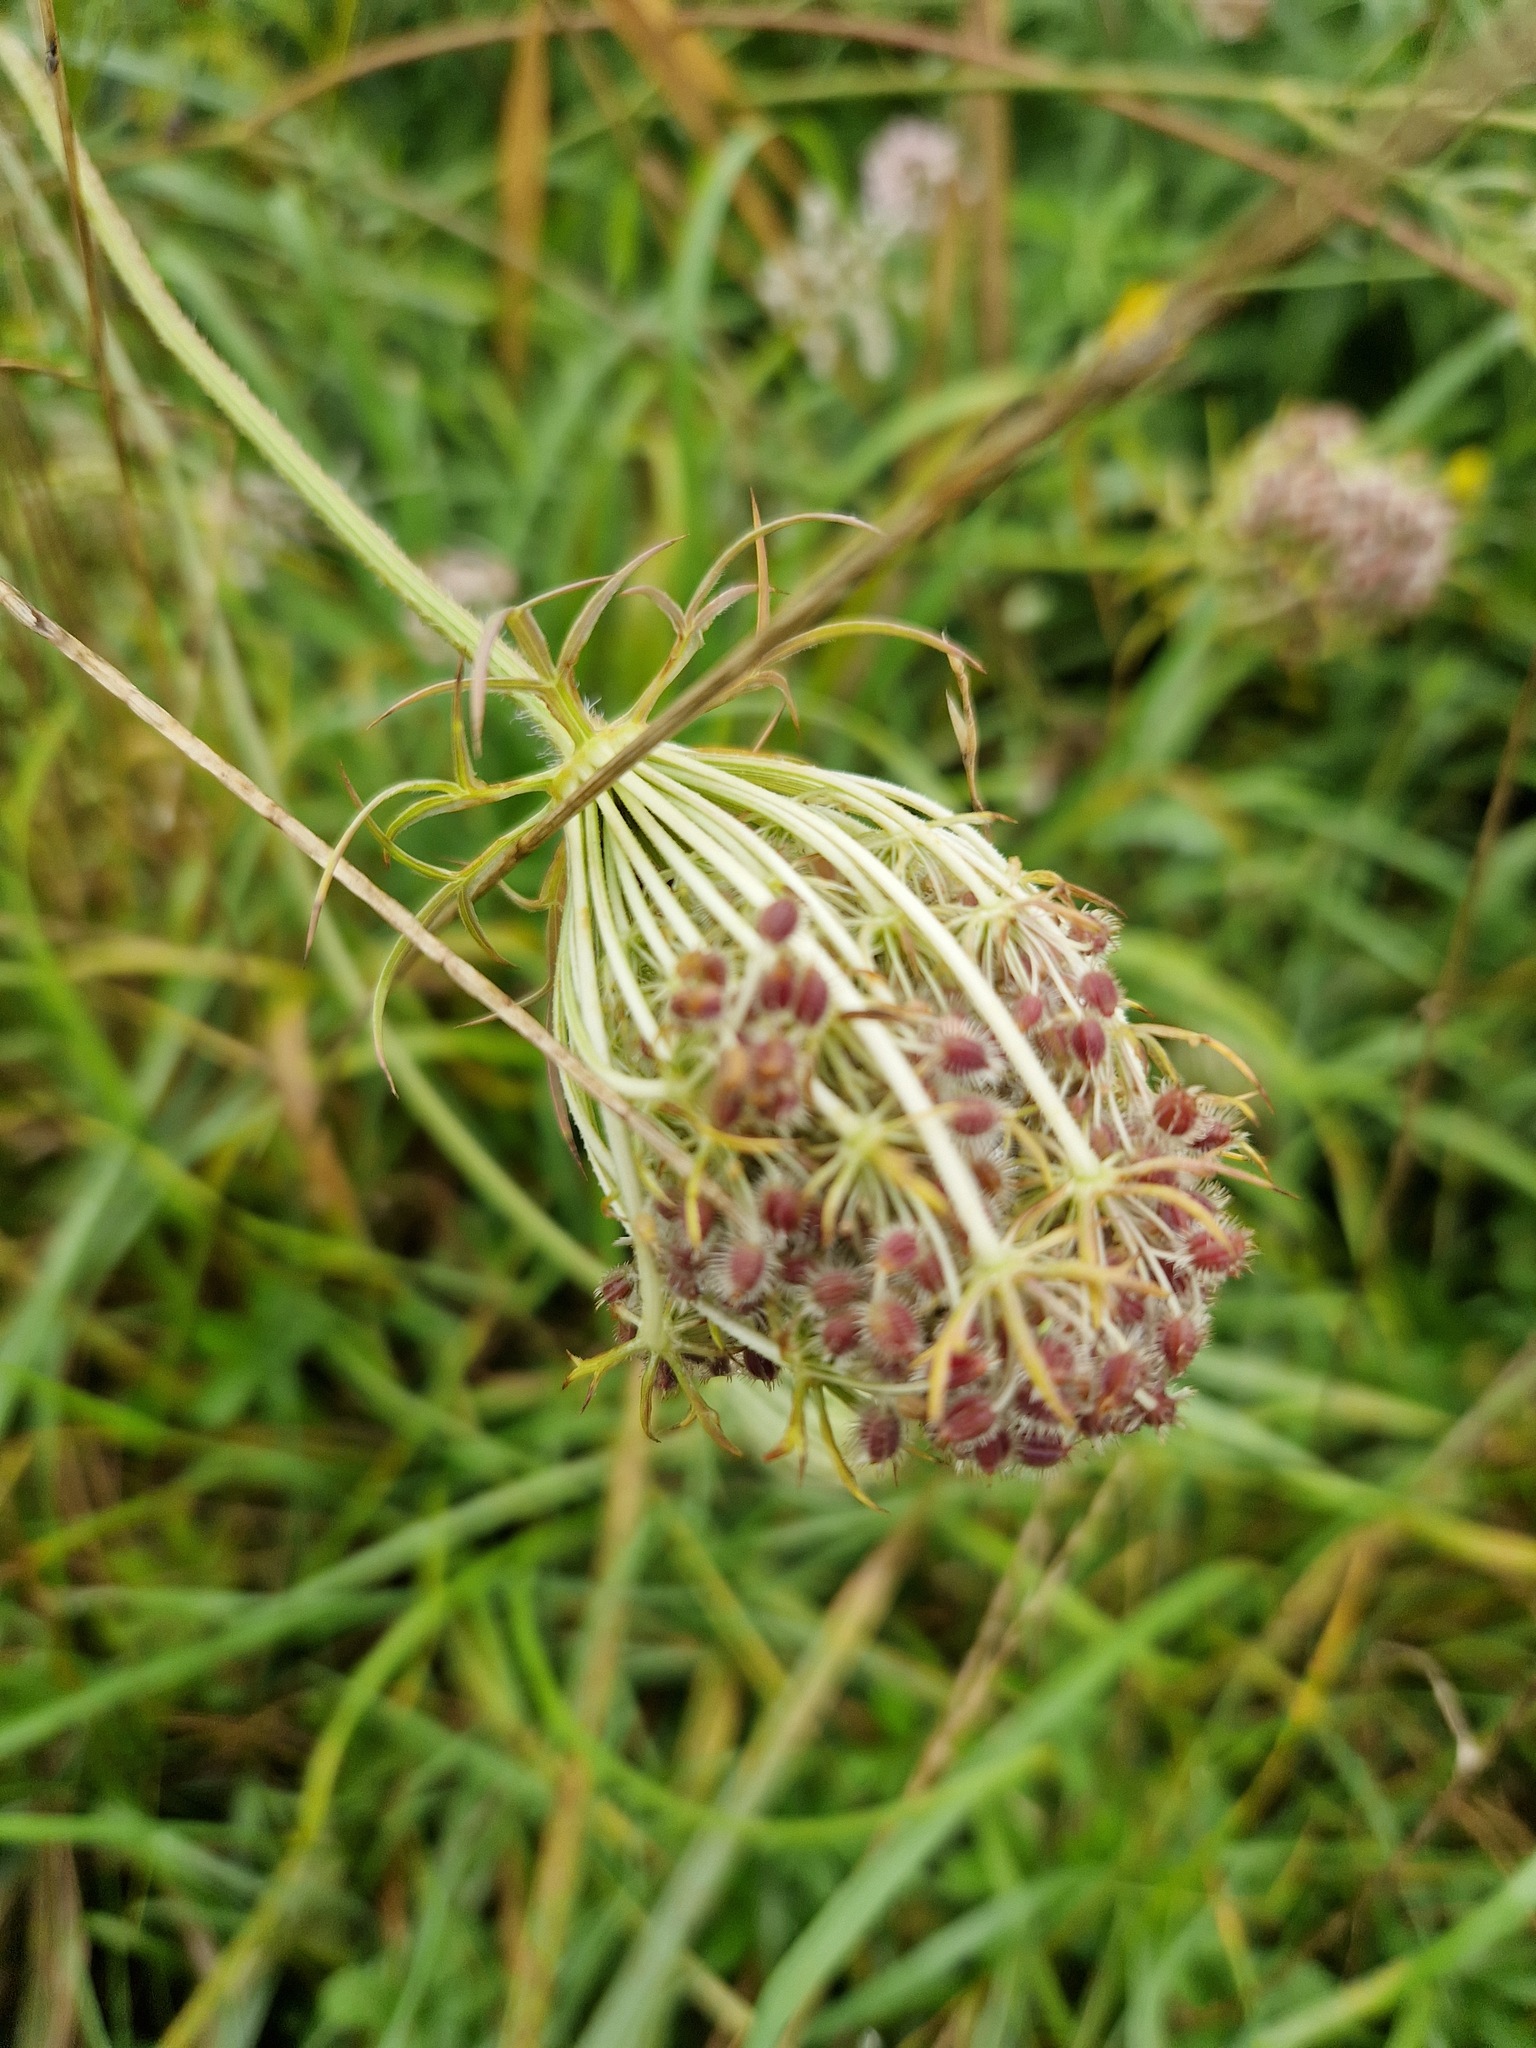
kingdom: Plantae
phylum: Tracheophyta
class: Magnoliopsida
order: Apiales
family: Apiaceae
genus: Daucus
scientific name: Daucus carota
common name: Wild carrot
